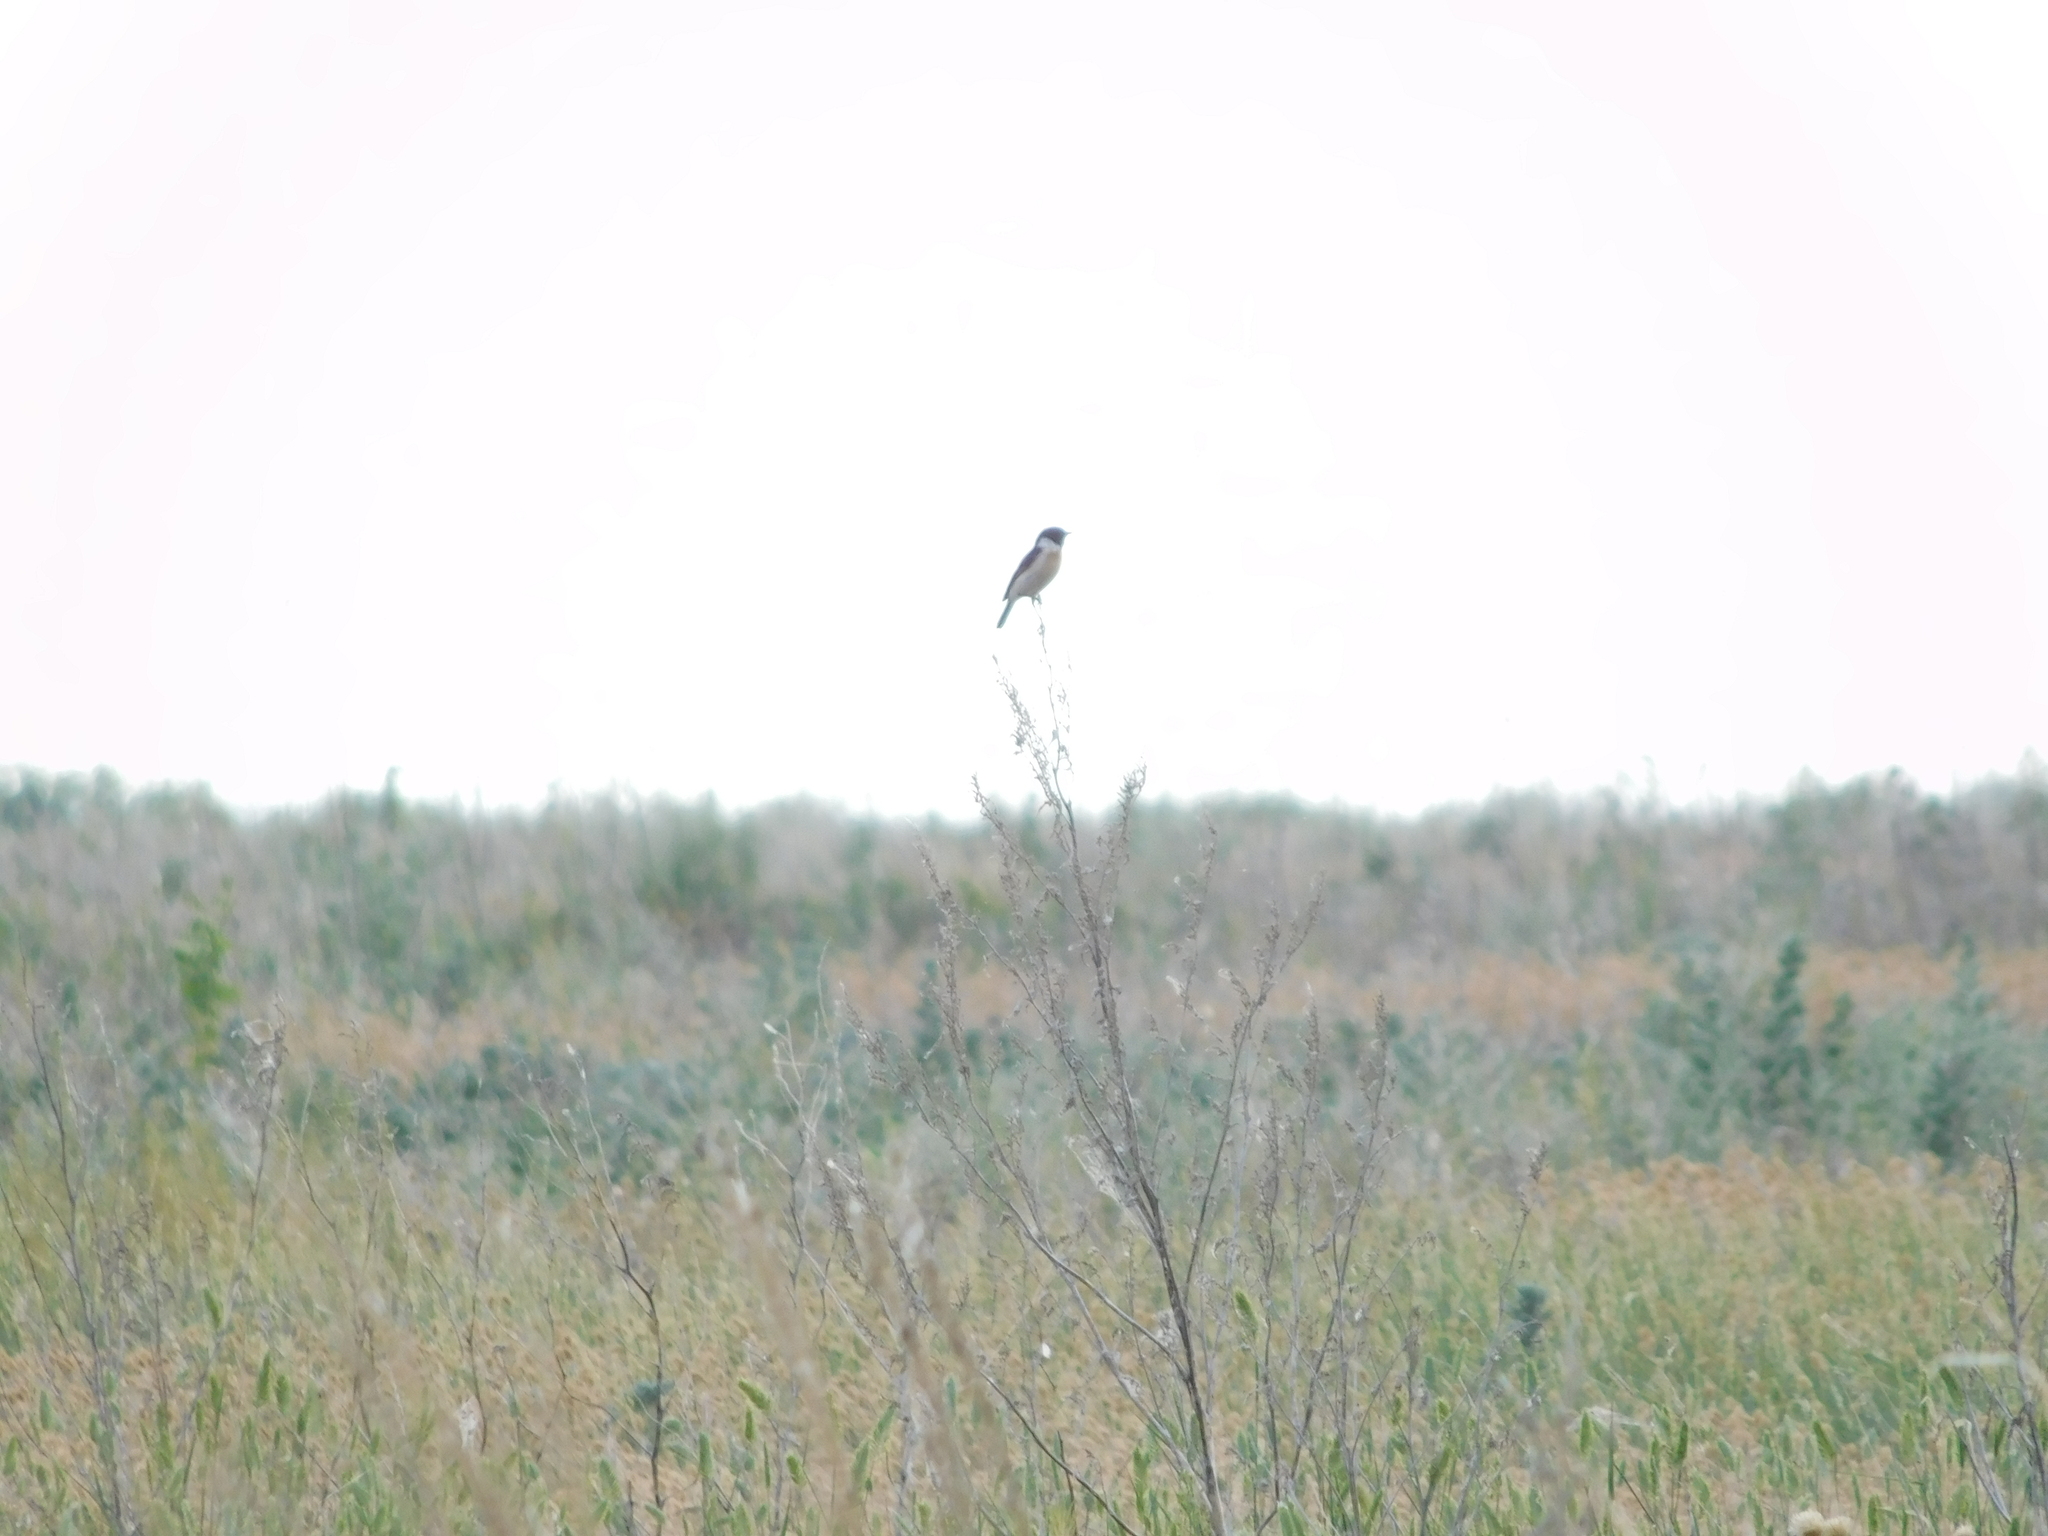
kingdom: Animalia
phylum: Chordata
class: Aves
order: Passeriformes
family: Muscicapidae
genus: Saxicola
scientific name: Saxicola maurus
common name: Siberian stonechat
